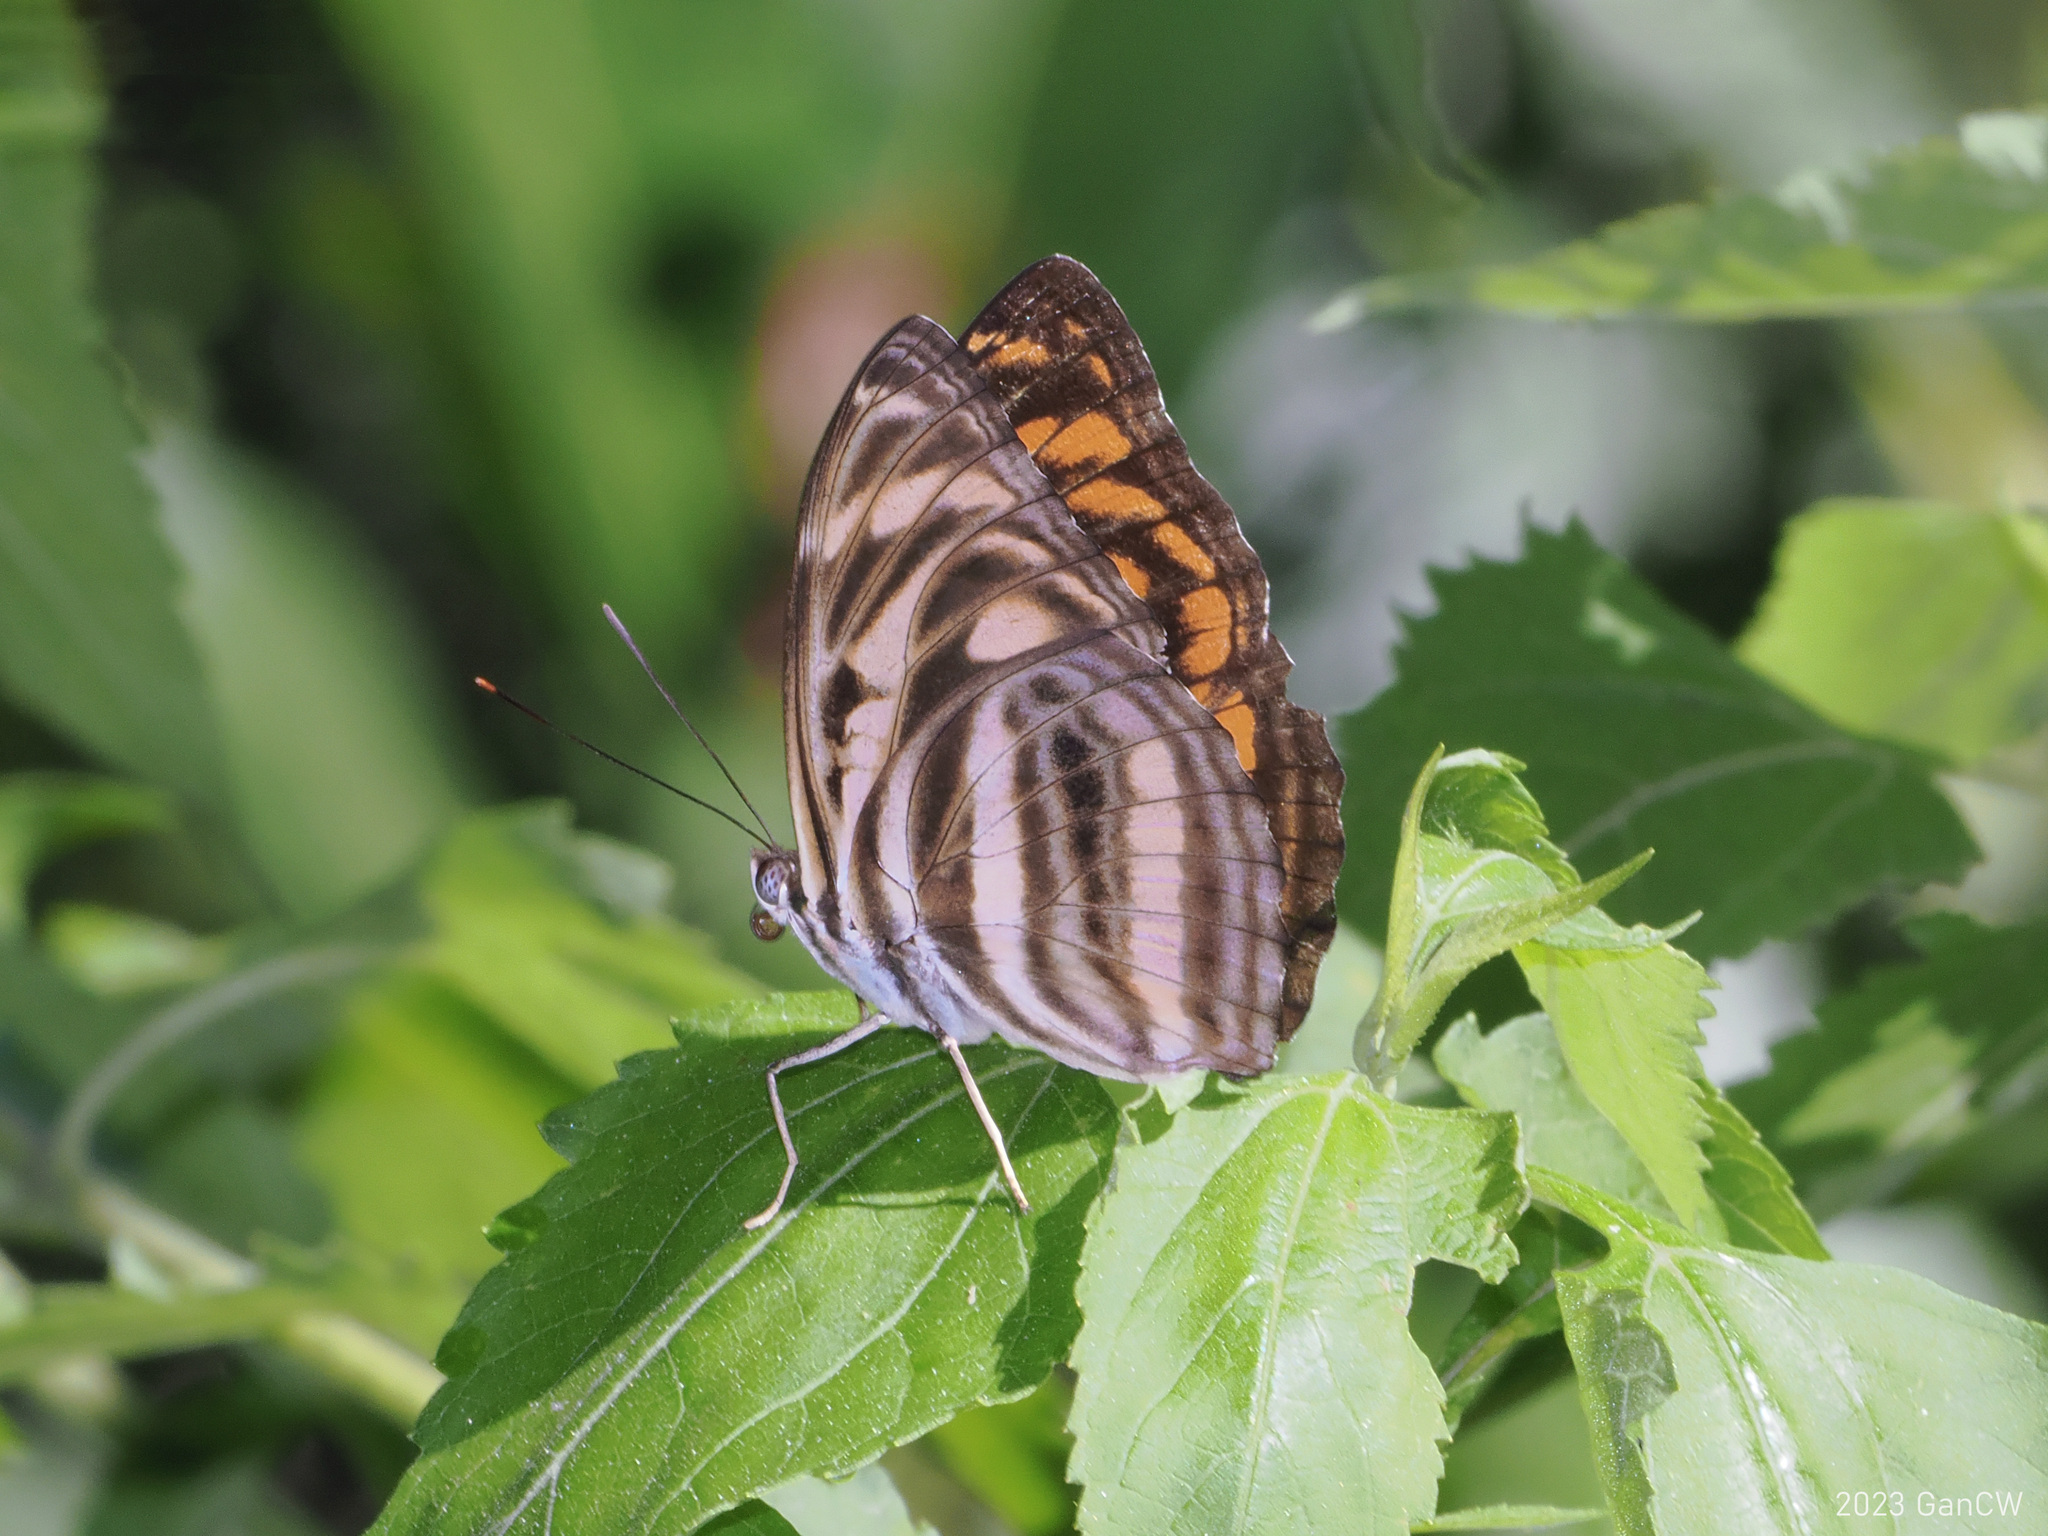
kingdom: Animalia
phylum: Arthropoda
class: Insecta
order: Lepidoptera
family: Nymphalidae
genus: Pantoporia
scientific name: Pantoporia eulimene
